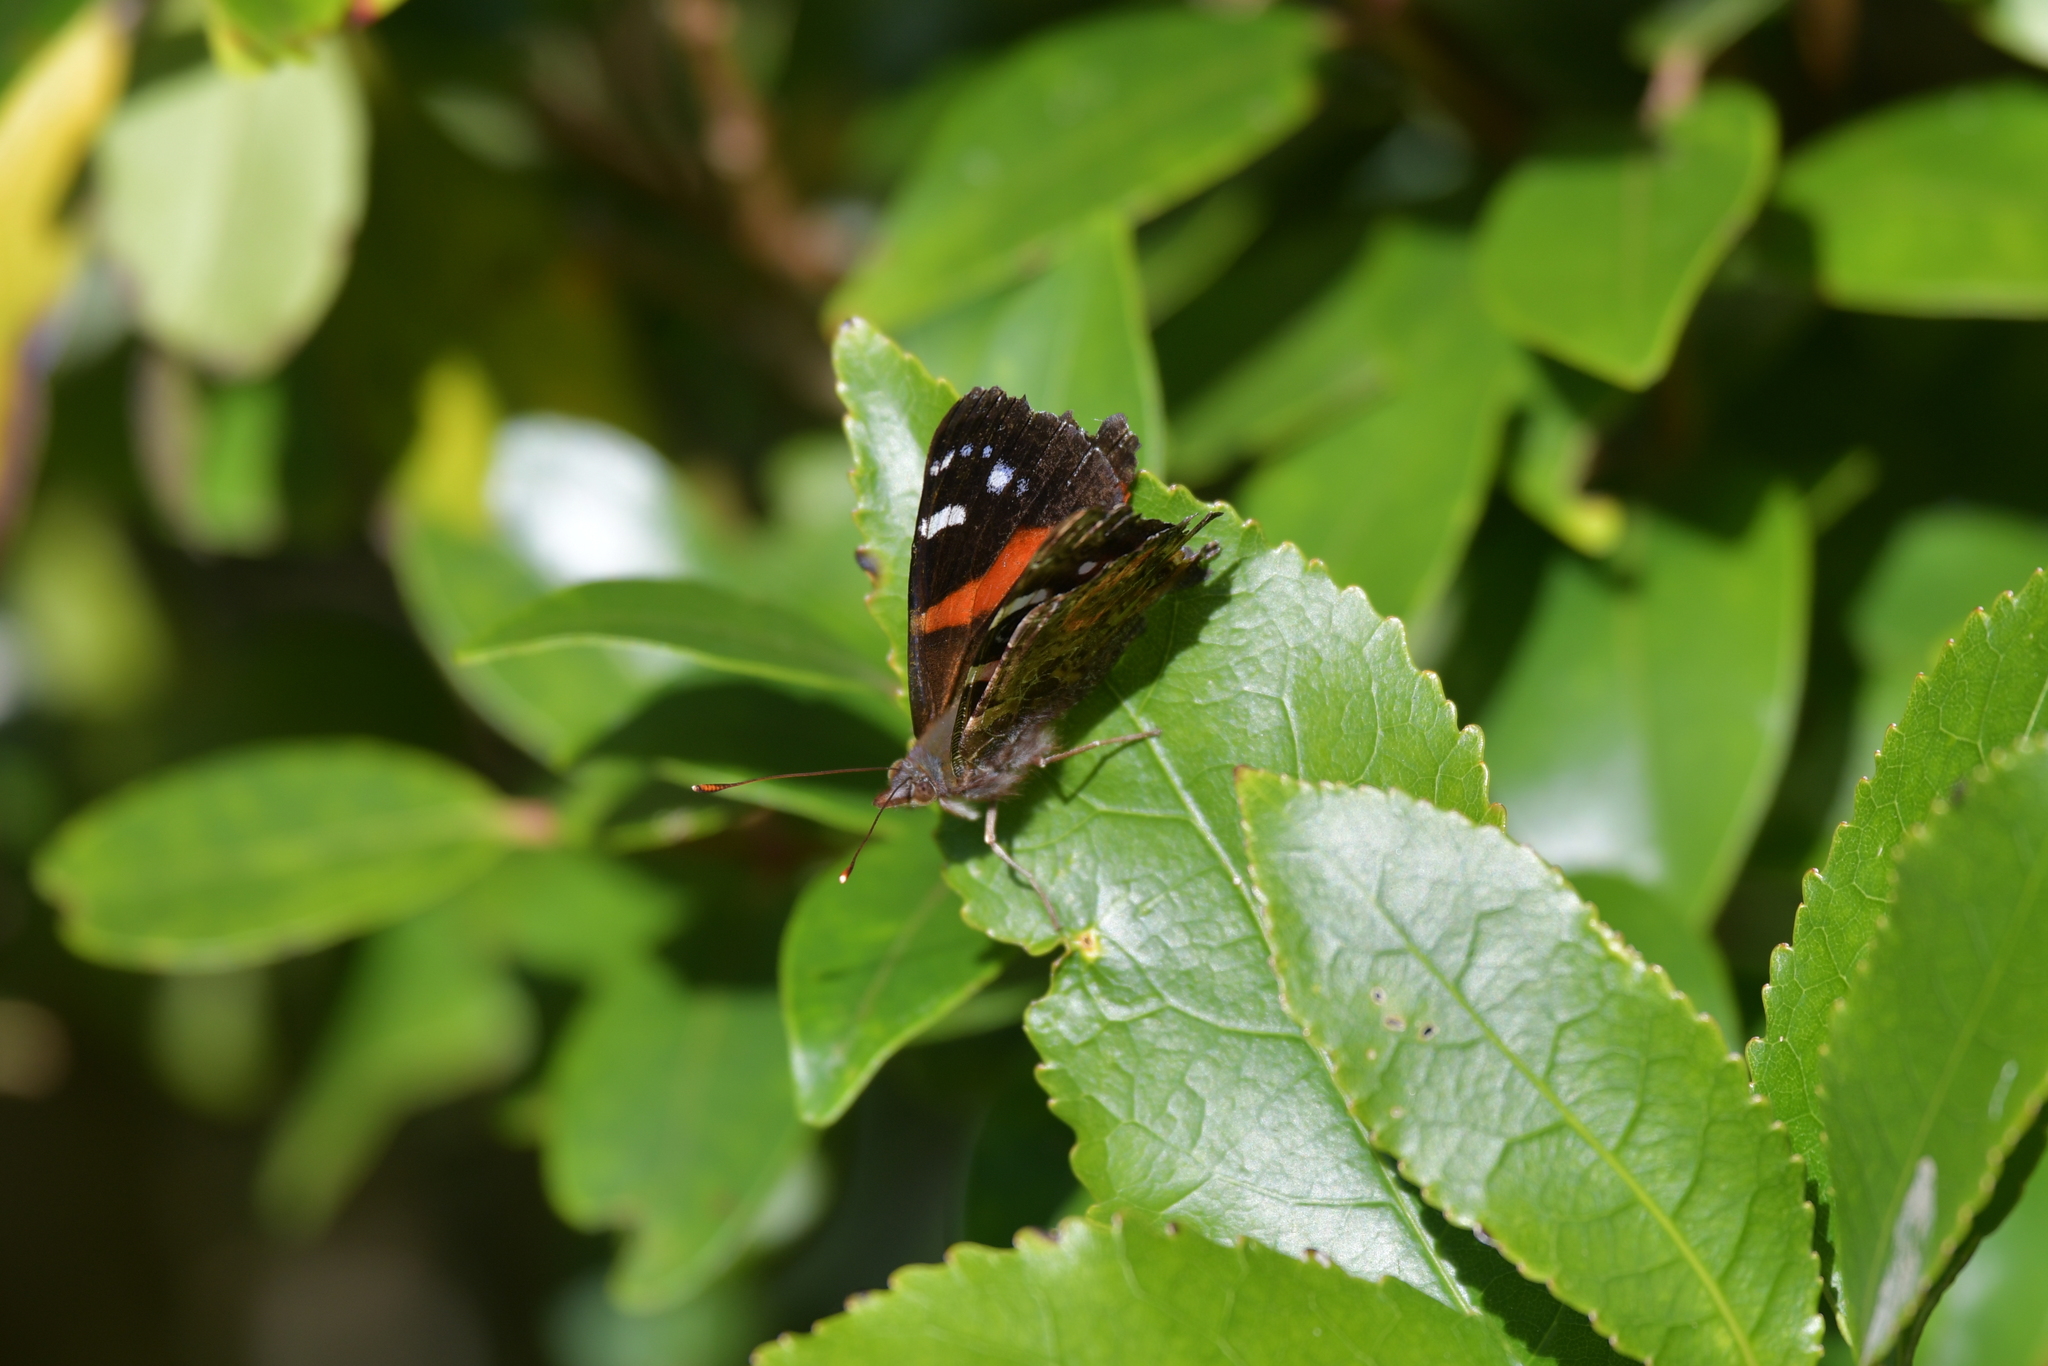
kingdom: Animalia
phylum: Arthropoda
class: Insecta
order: Lepidoptera
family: Nymphalidae
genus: Vanessa
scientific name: Vanessa gonerilla
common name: New zealand red admiral
